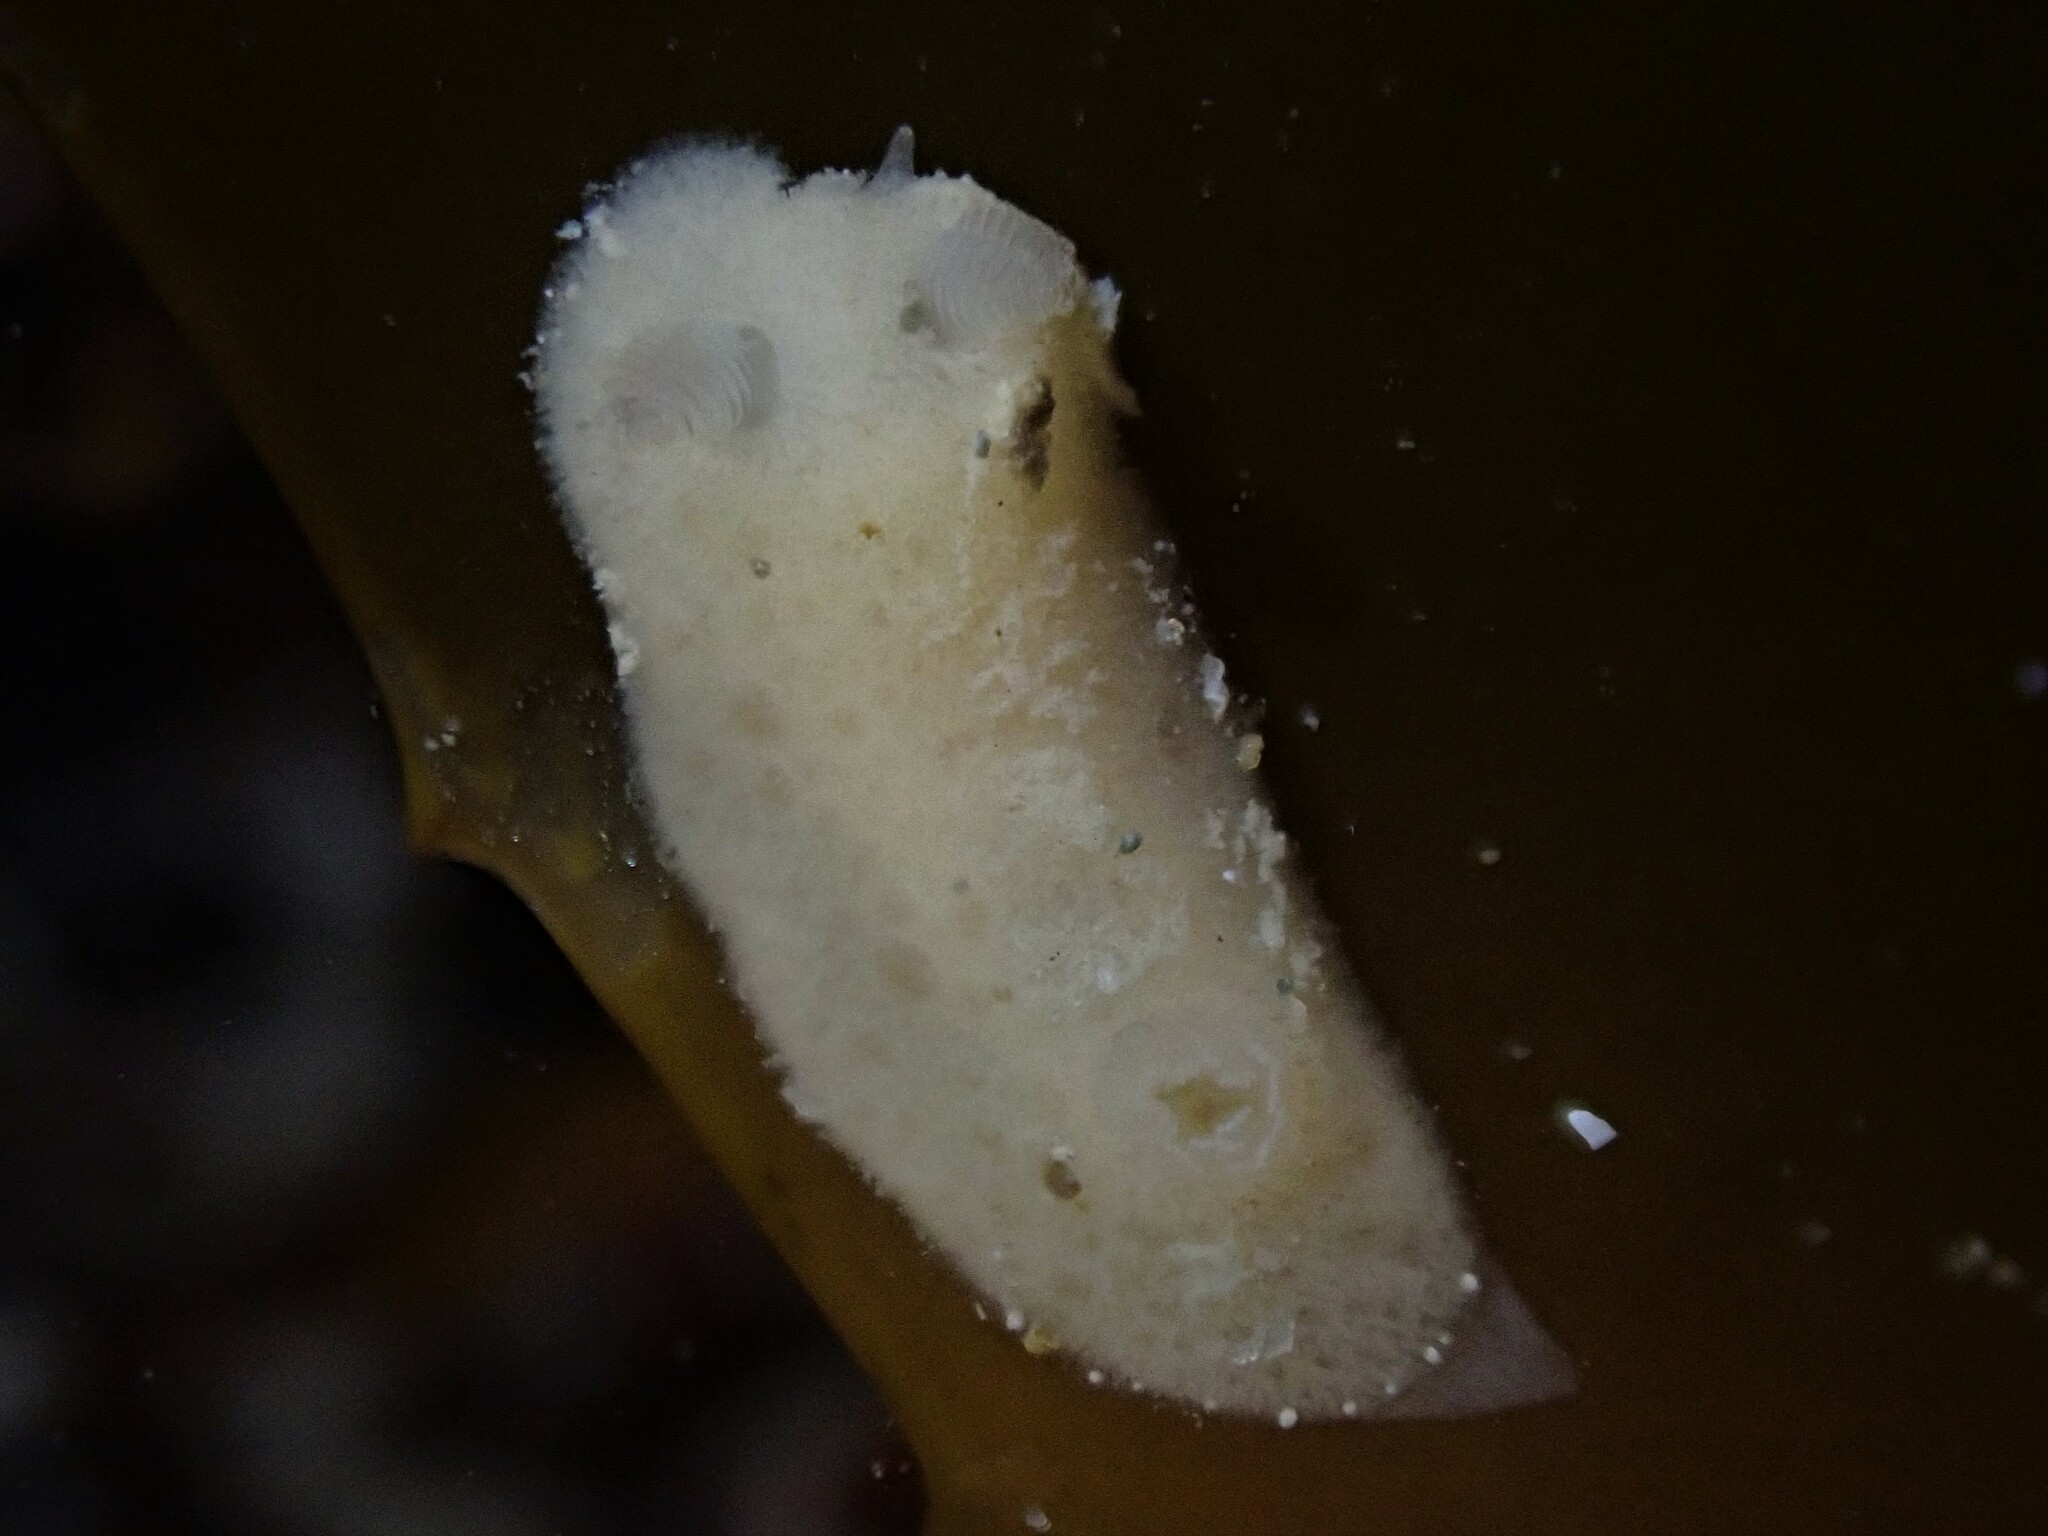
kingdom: Animalia
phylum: Mollusca
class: Gastropoda
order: Nudibranchia
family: Discodorididae
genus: Jorunna
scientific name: Jorunna ramicola
